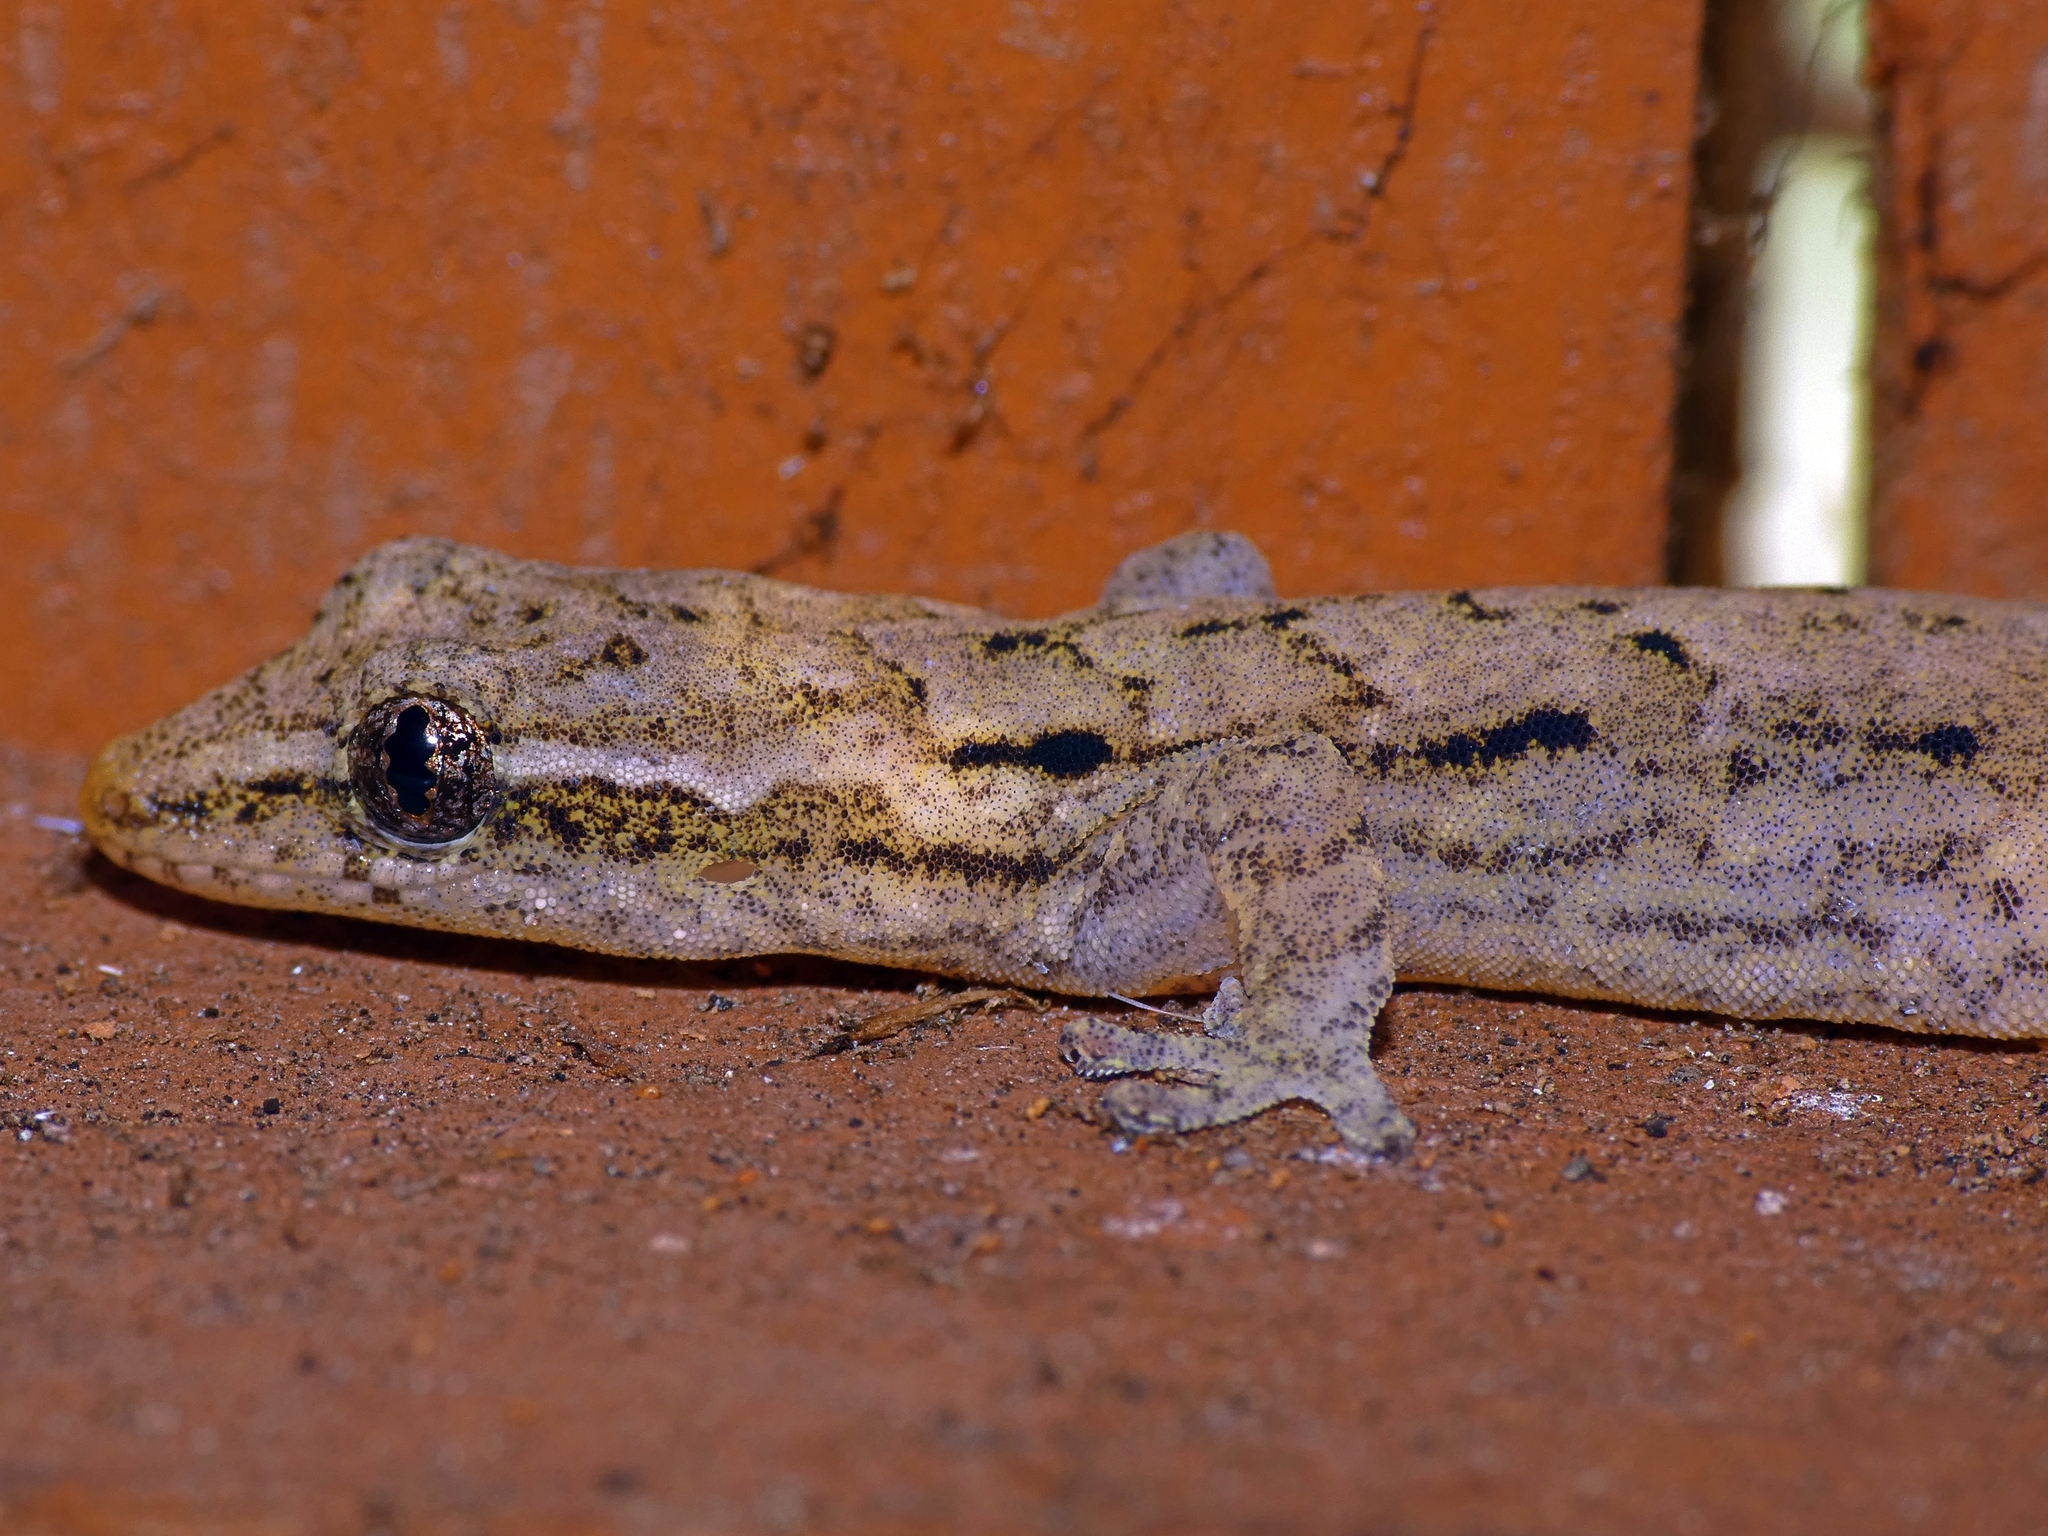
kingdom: Animalia
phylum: Chordata
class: Squamata
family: Gekkonidae
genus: Lepidodactylus
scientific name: Lepidodactylus lugubris
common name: Mourning gecko
